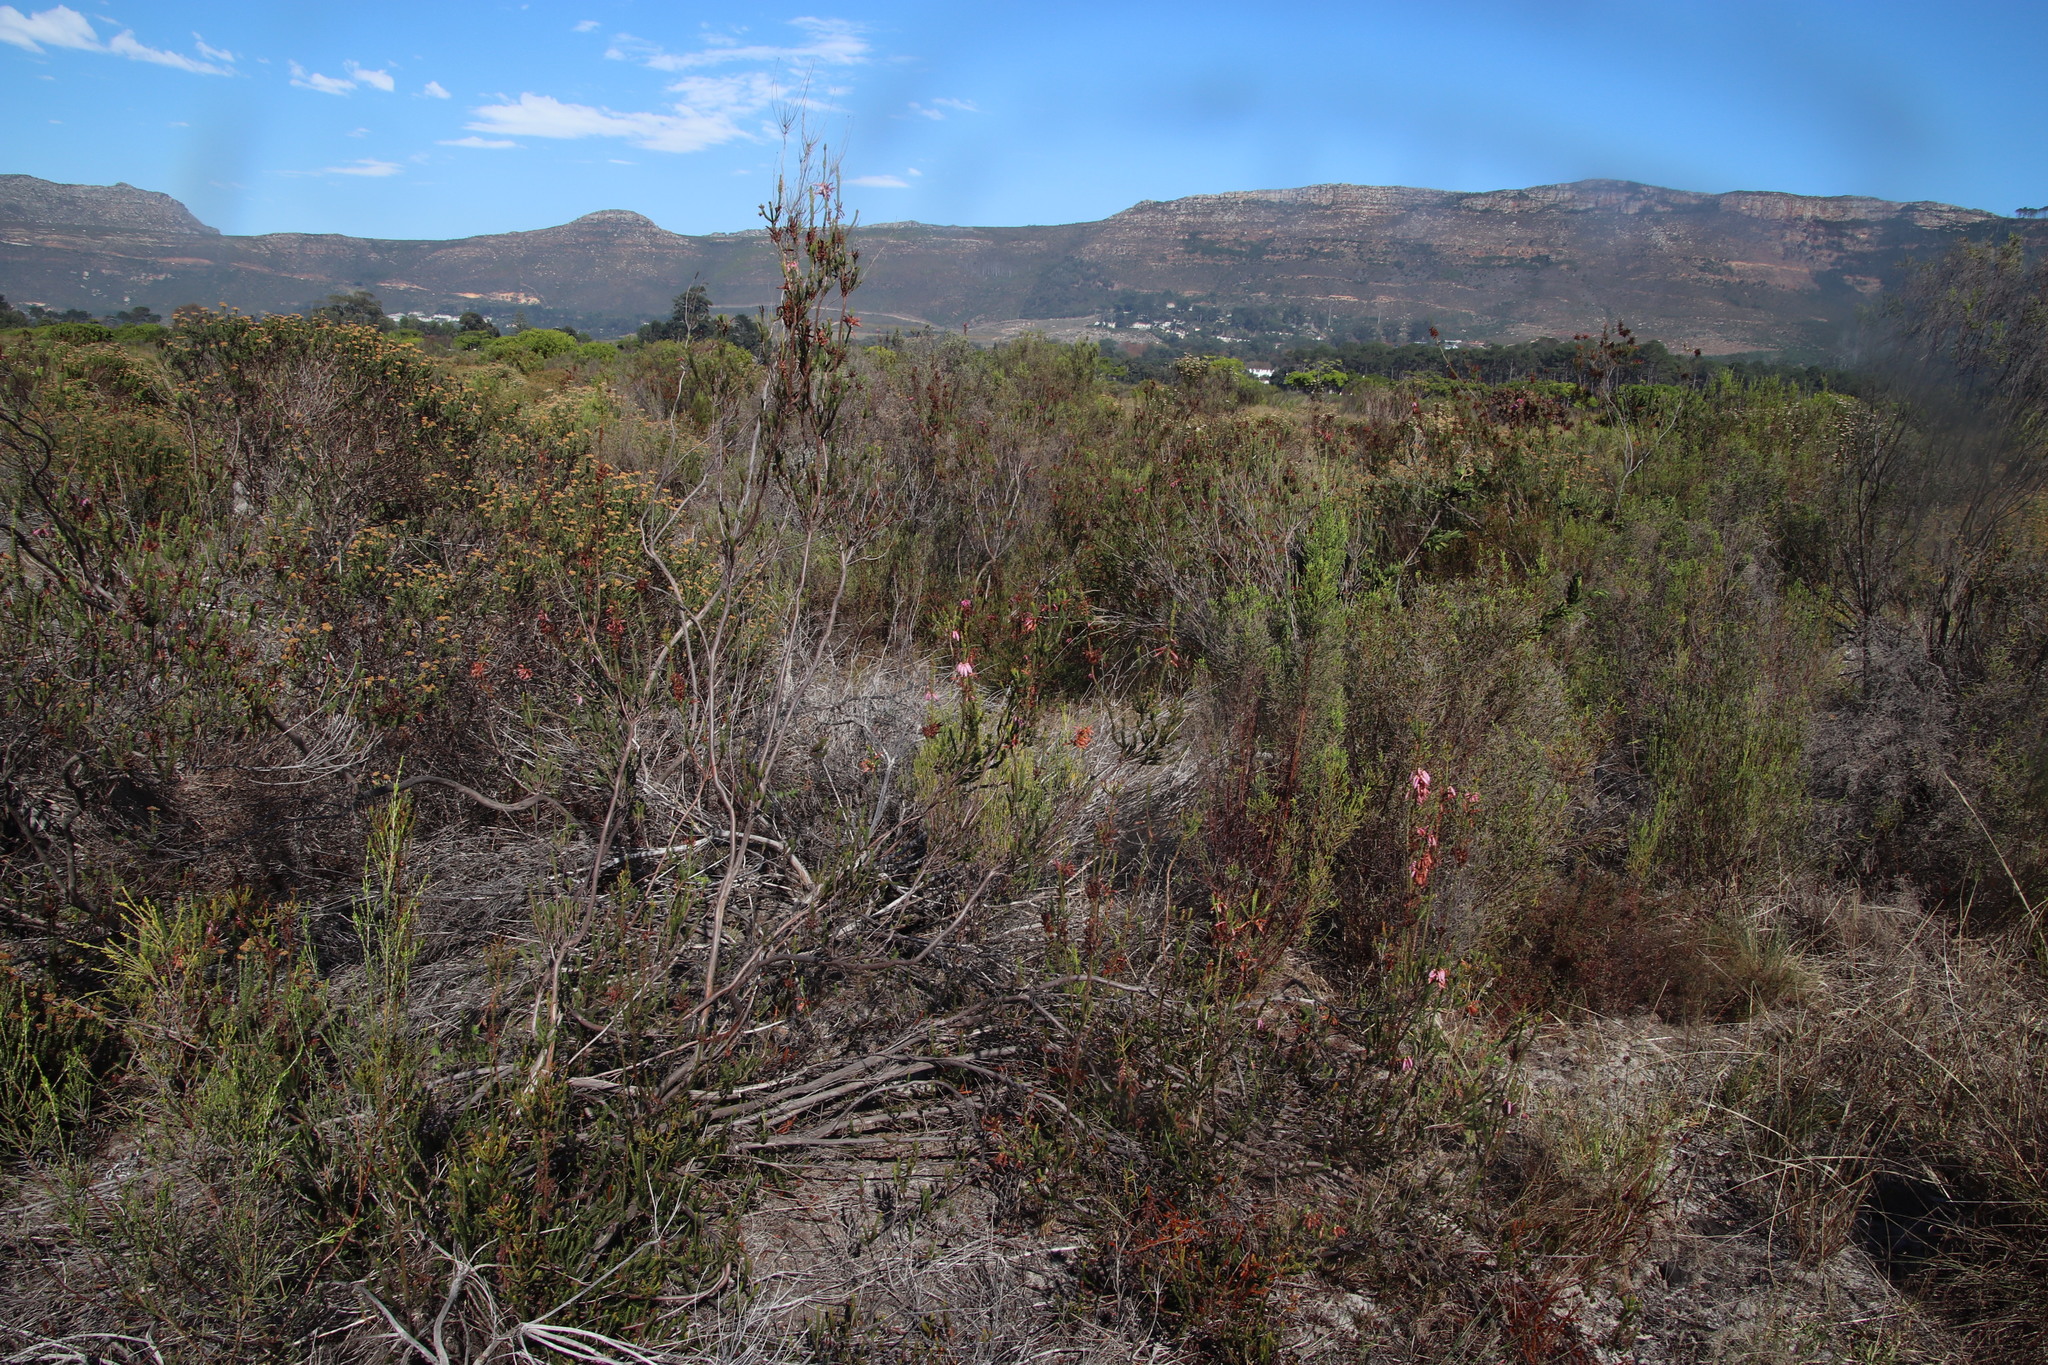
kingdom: Plantae
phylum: Tracheophyta
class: Magnoliopsida
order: Ericales
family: Ericaceae
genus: Erica
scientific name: Erica mammosa
